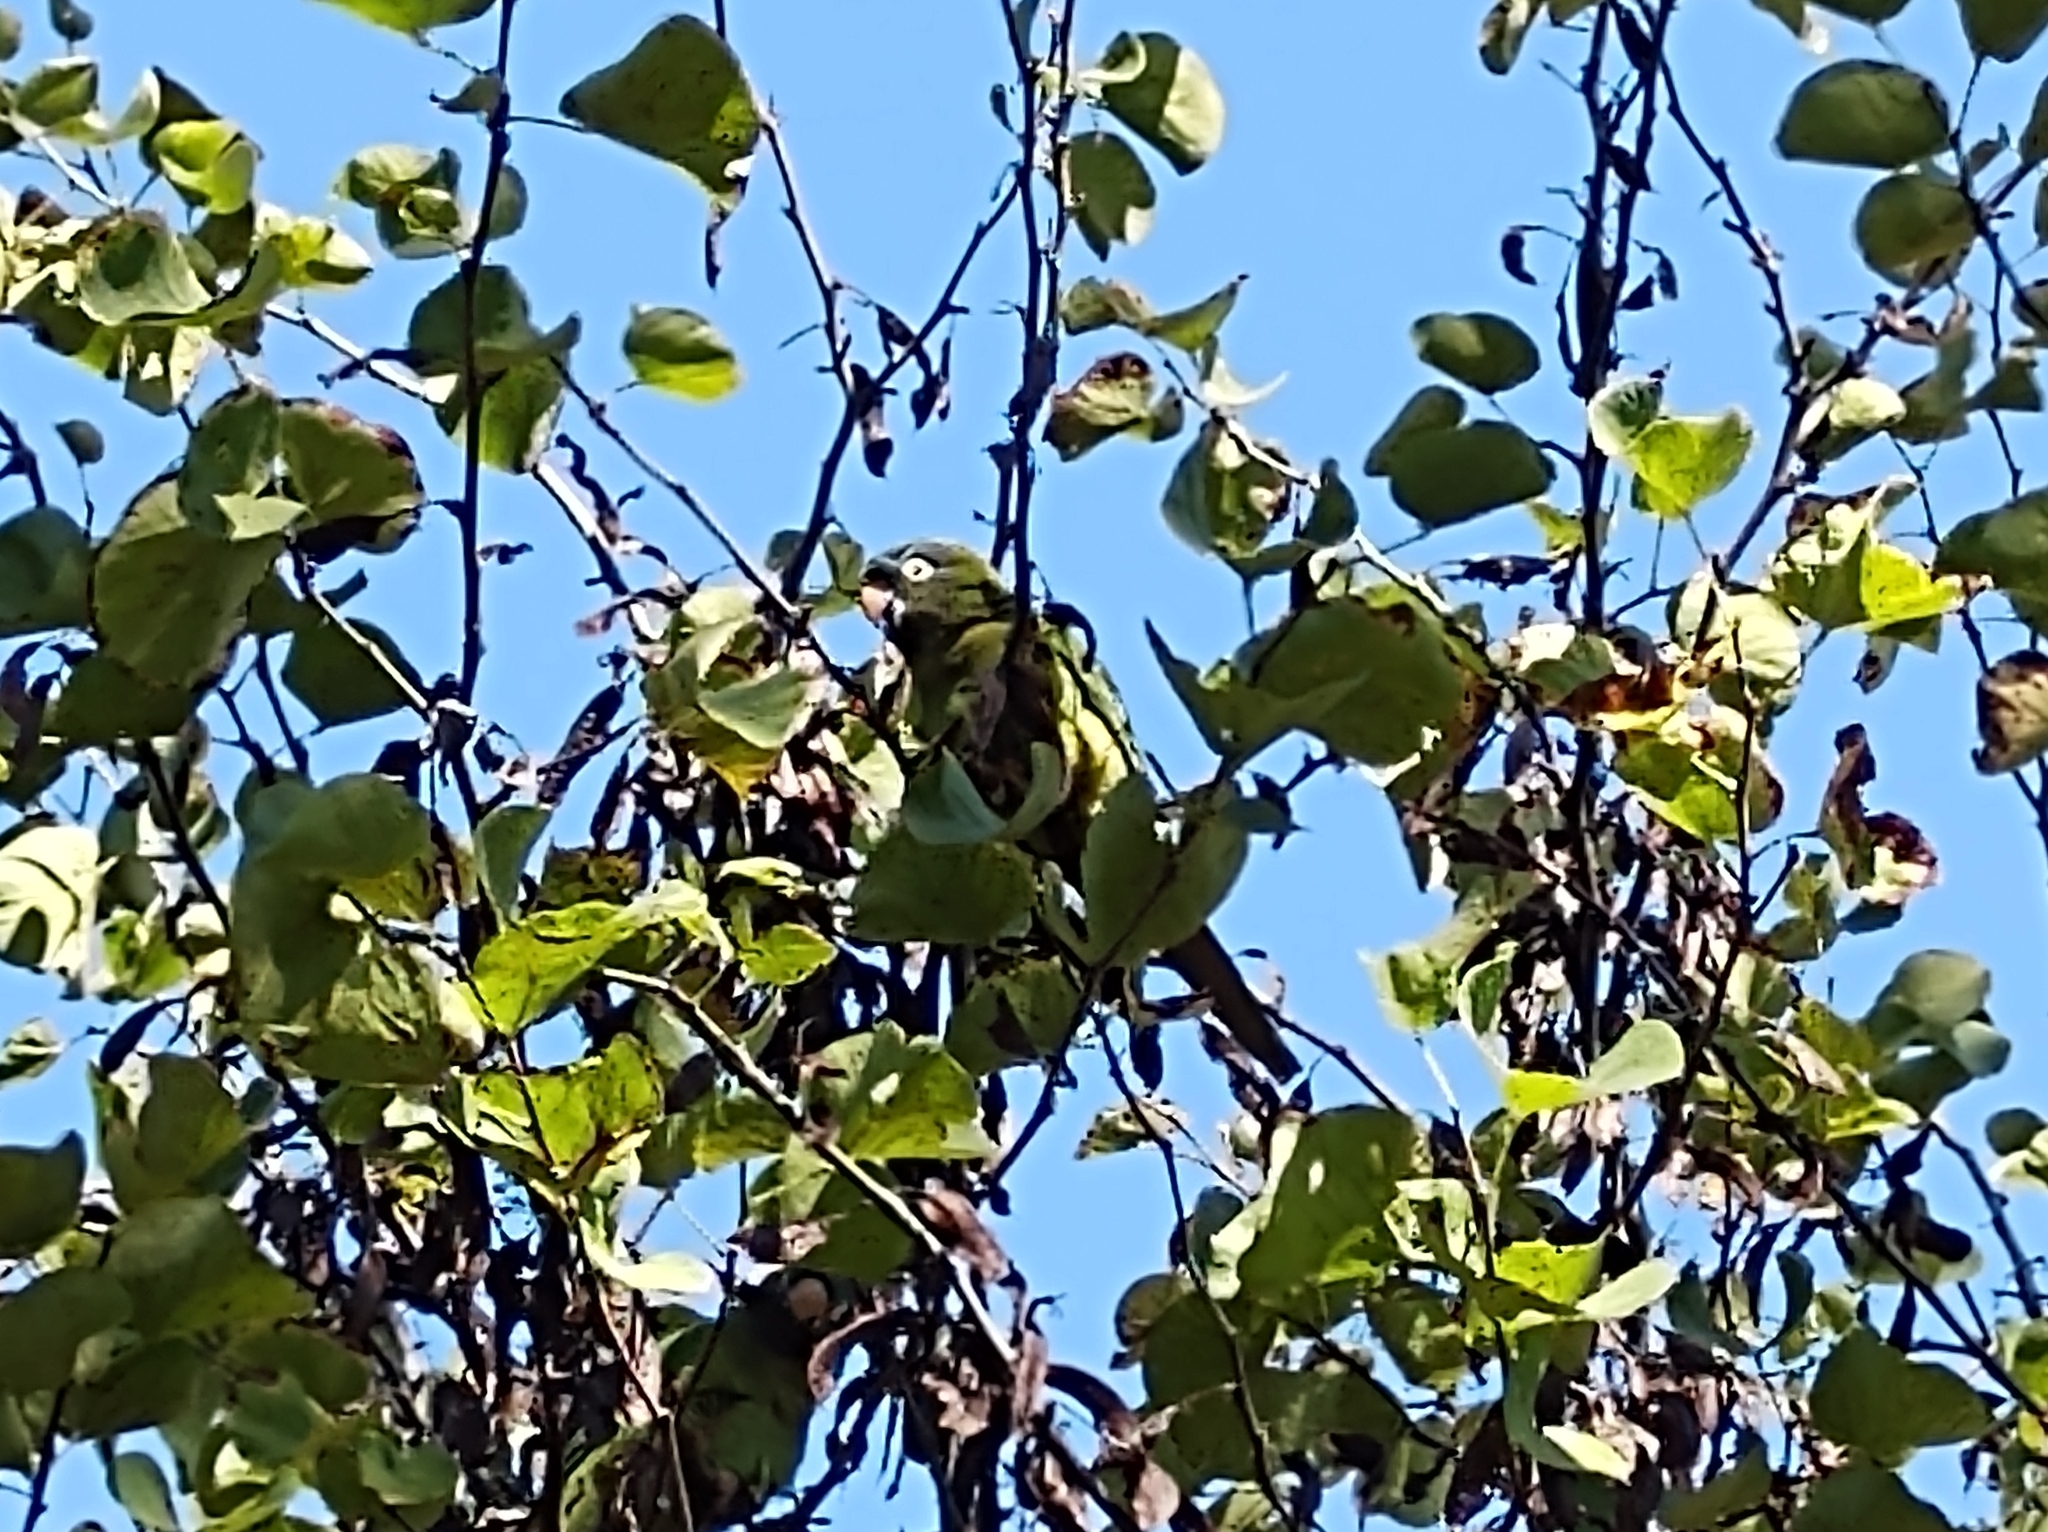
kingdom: Animalia
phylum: Chordata
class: Aves
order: Psittaciformes
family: Psittacidae
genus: Aratinga
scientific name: Aratinga acuticaudata
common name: Blue-crowned parakeet
